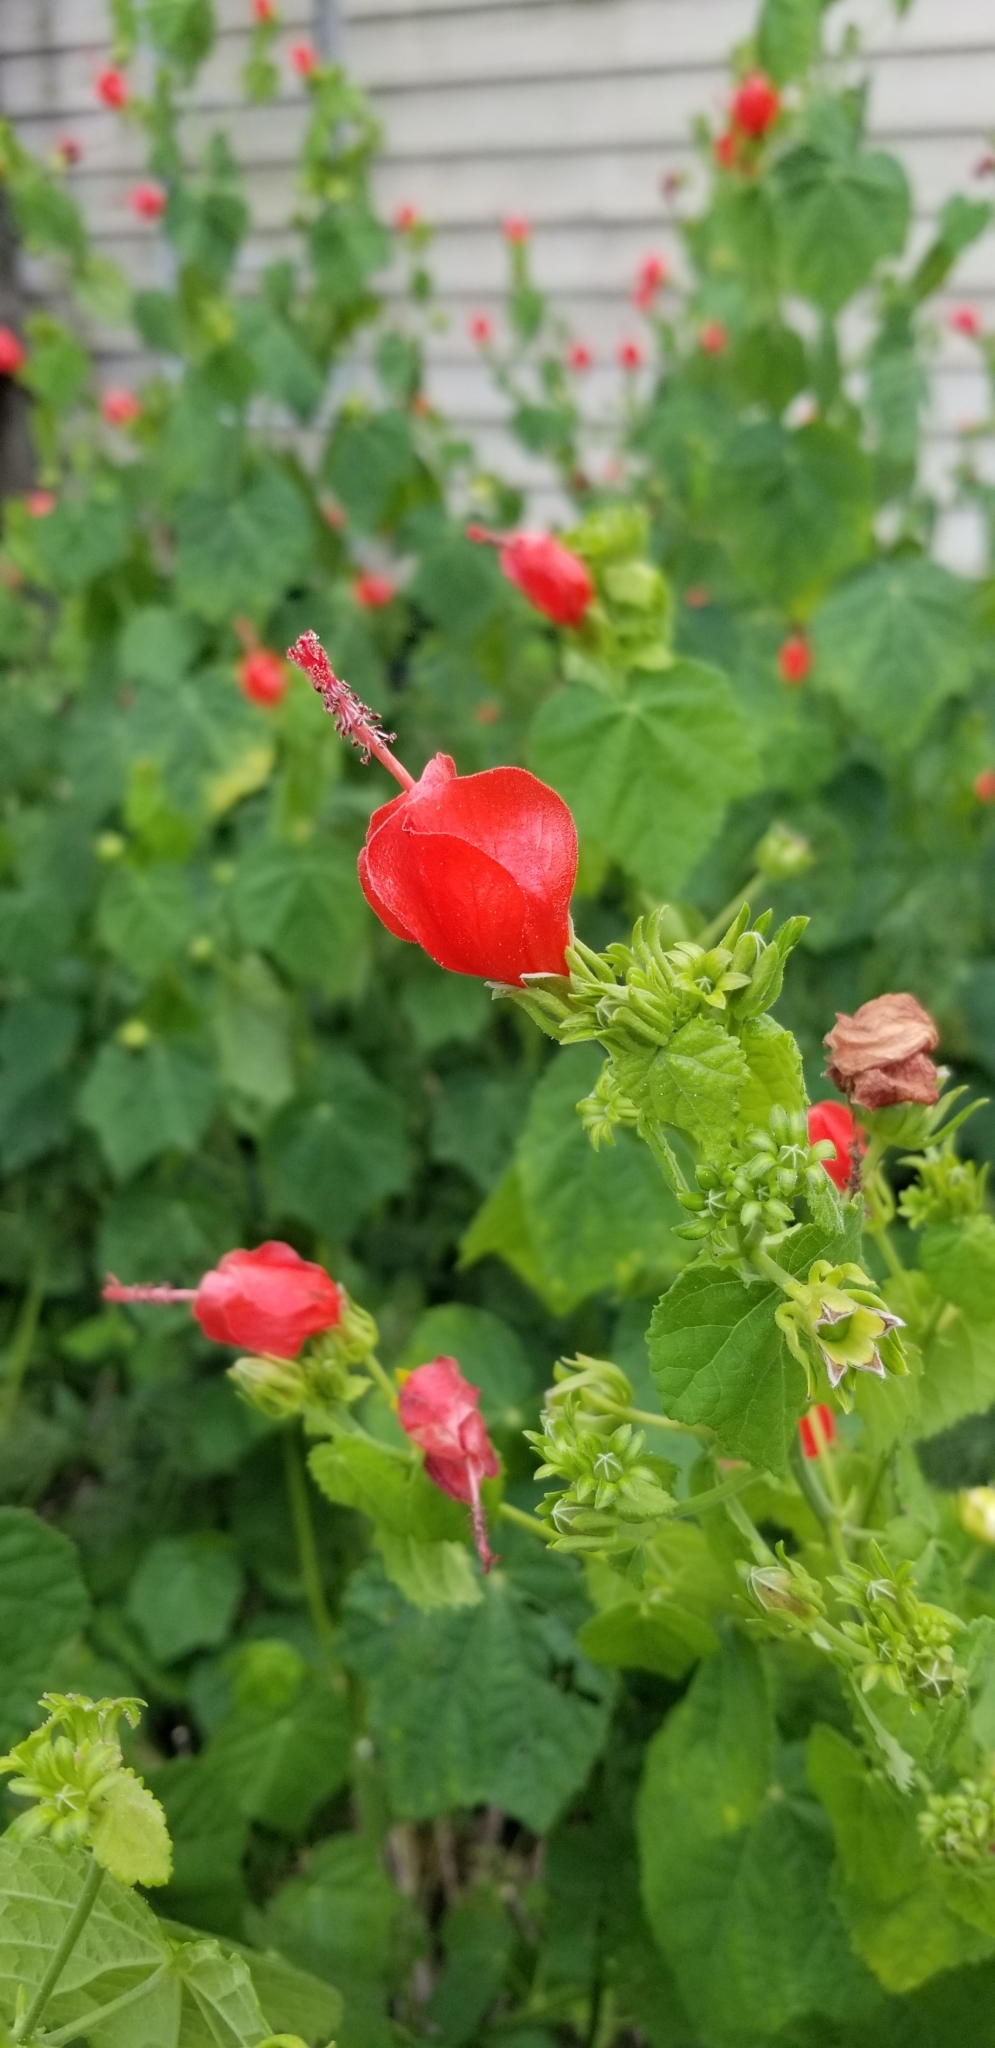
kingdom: Plantae
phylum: Tracheophyta
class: Magnoliopsida
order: Malvales
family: Malvaceae
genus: Malvaviscus
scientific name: Malvaviscus arboreus
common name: Wax mallow
